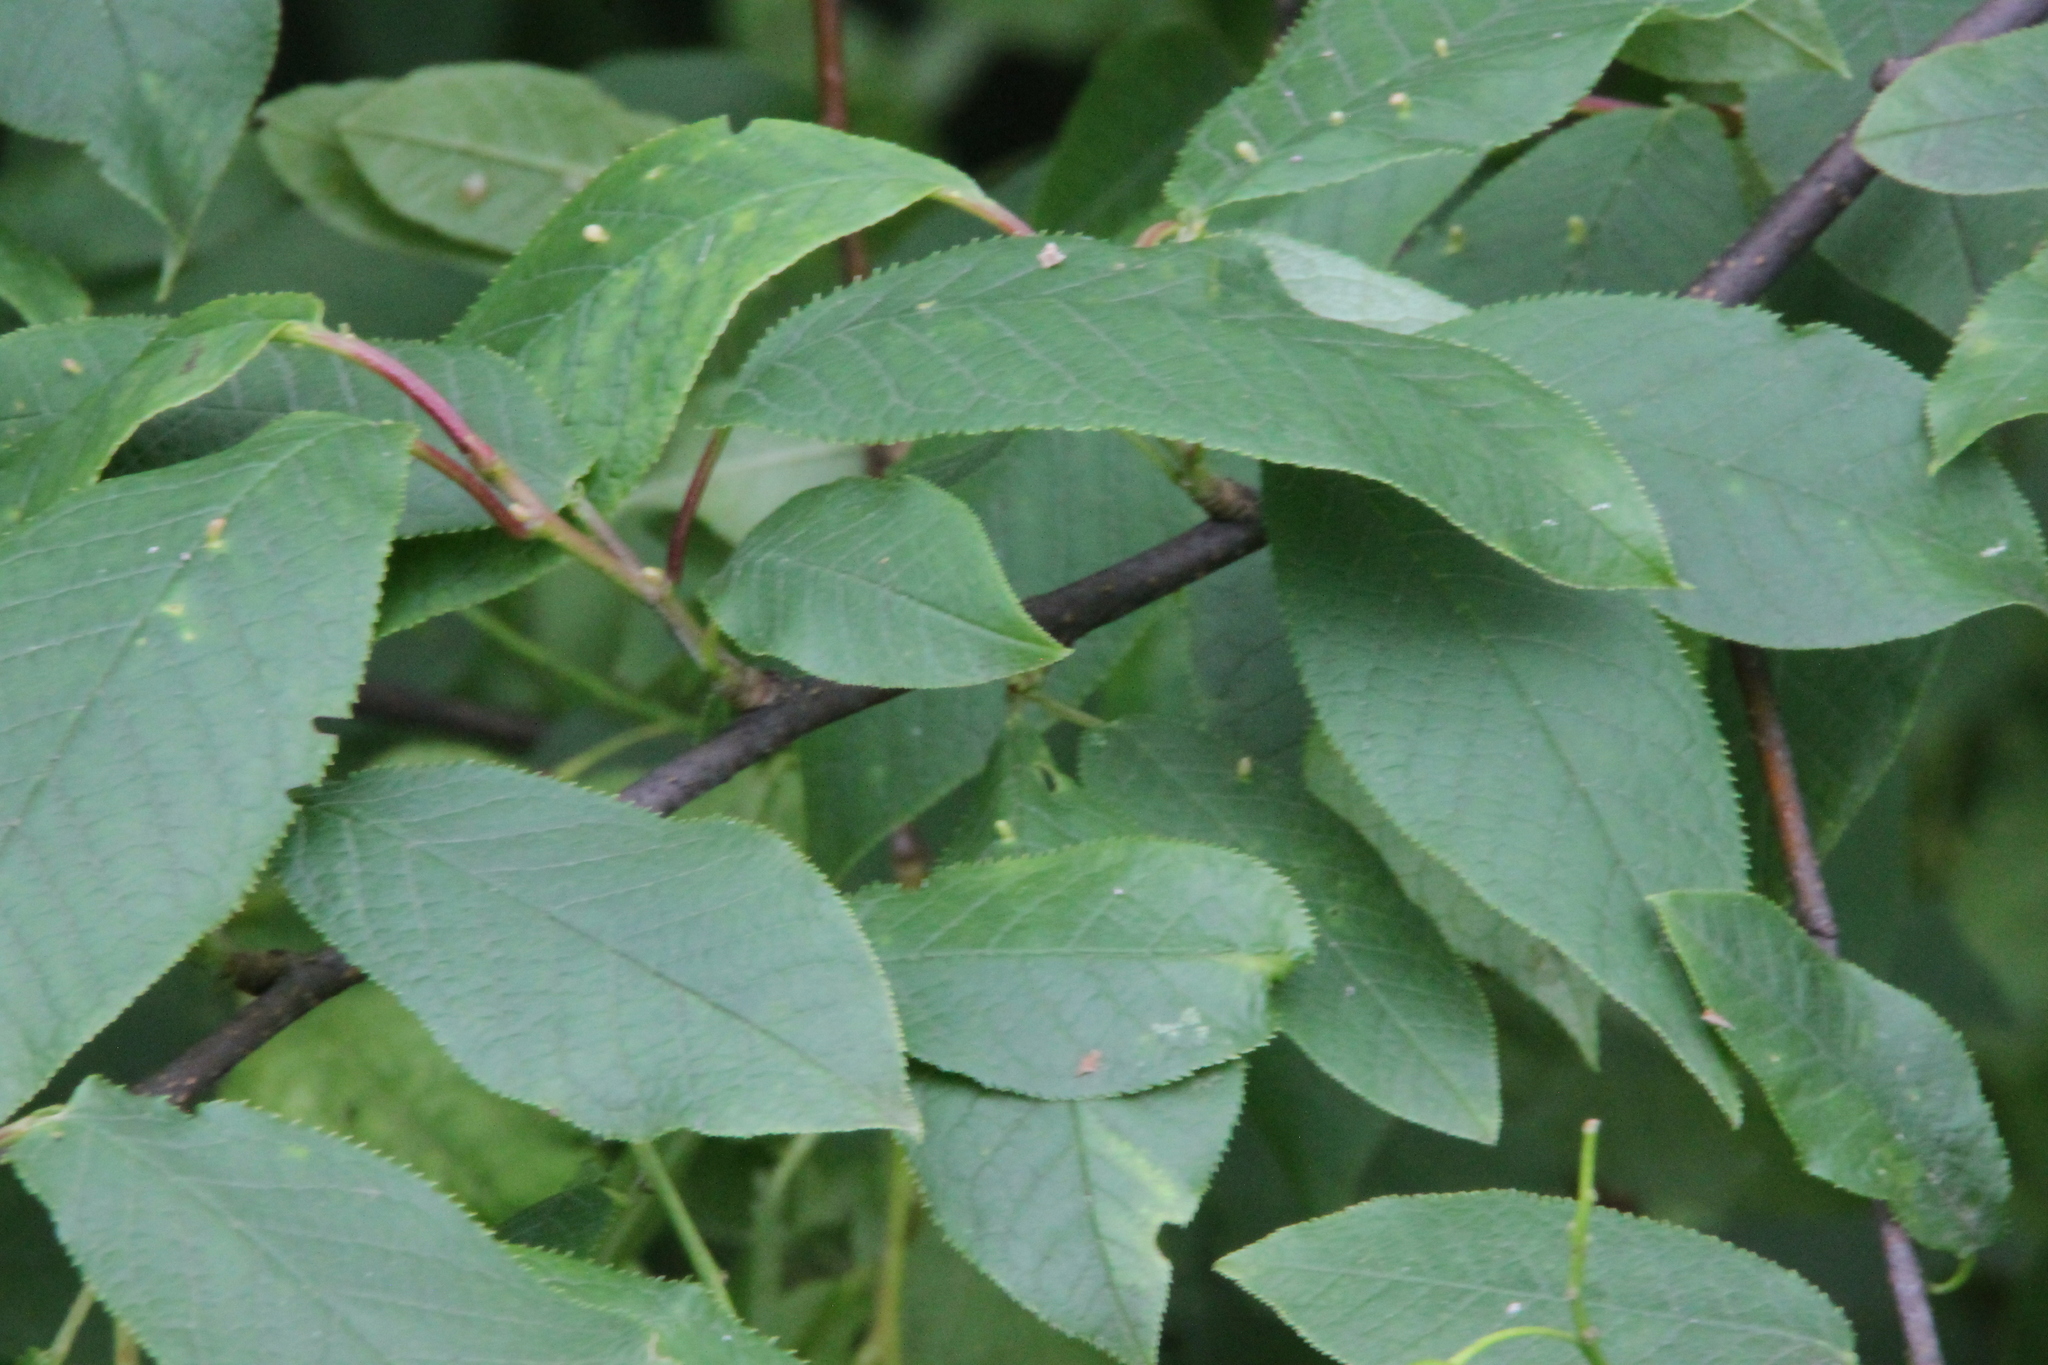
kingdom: Plantae
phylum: Tracheophyta
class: Magnoliopsida
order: Rosales
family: Rosaceae
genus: Prunus
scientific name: Prunus padus
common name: Bird cherry
